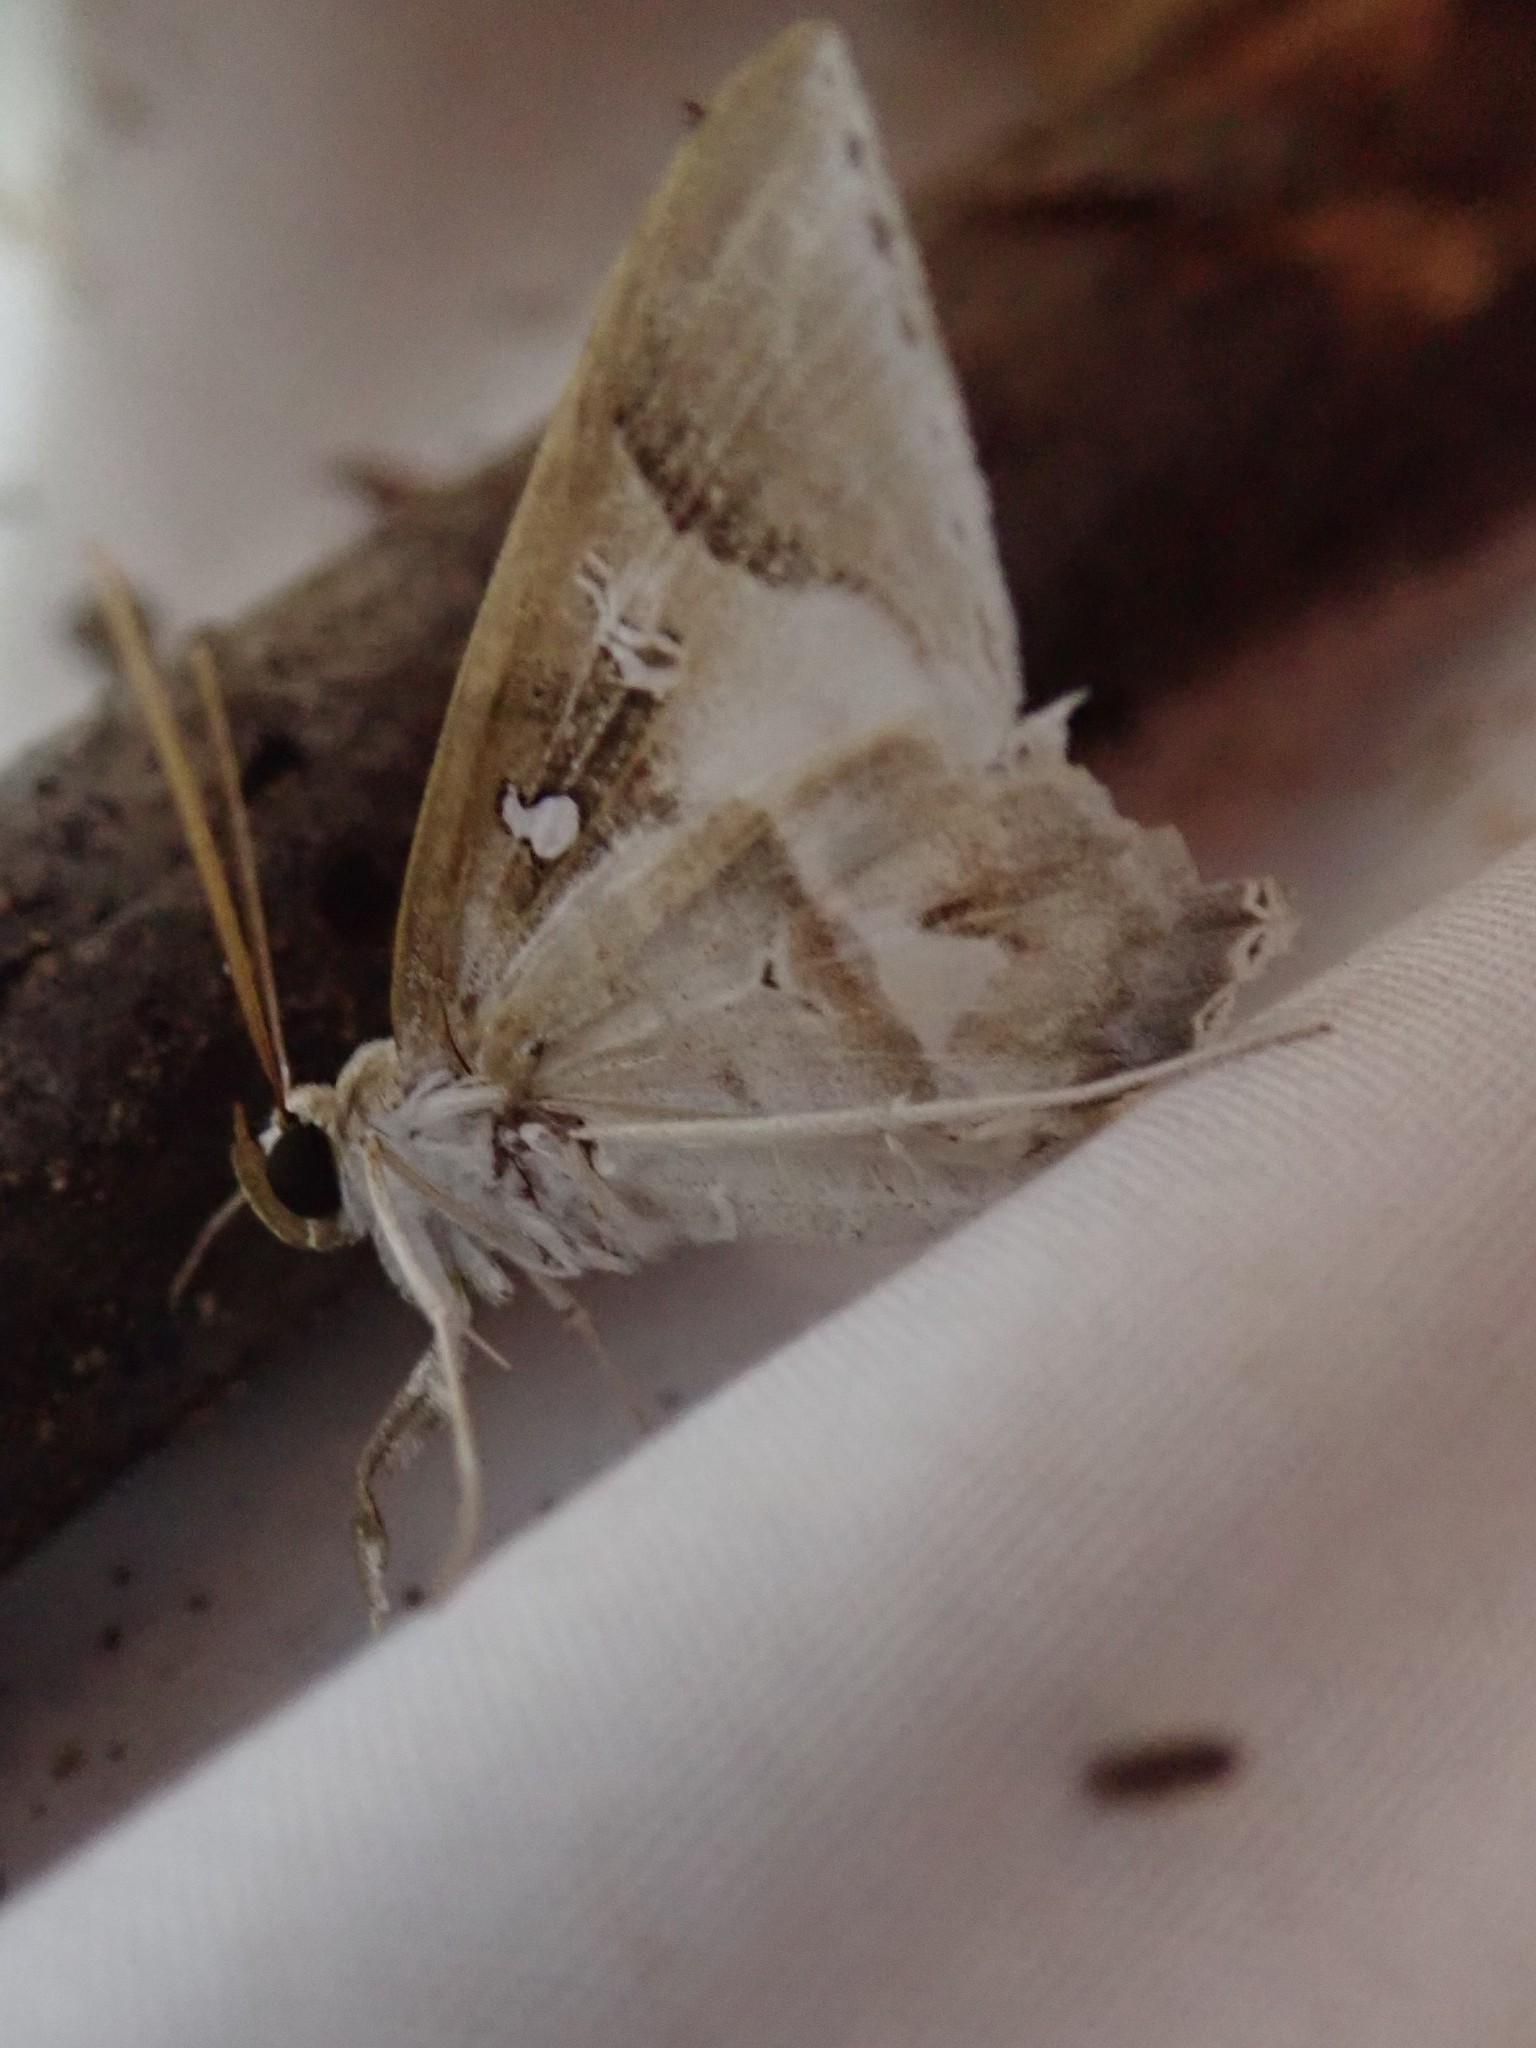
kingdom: Animalia
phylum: Arthropoda
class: Insecta
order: Lepidoptera
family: Erebidae
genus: Macrodes
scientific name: Macrodes columbalis
